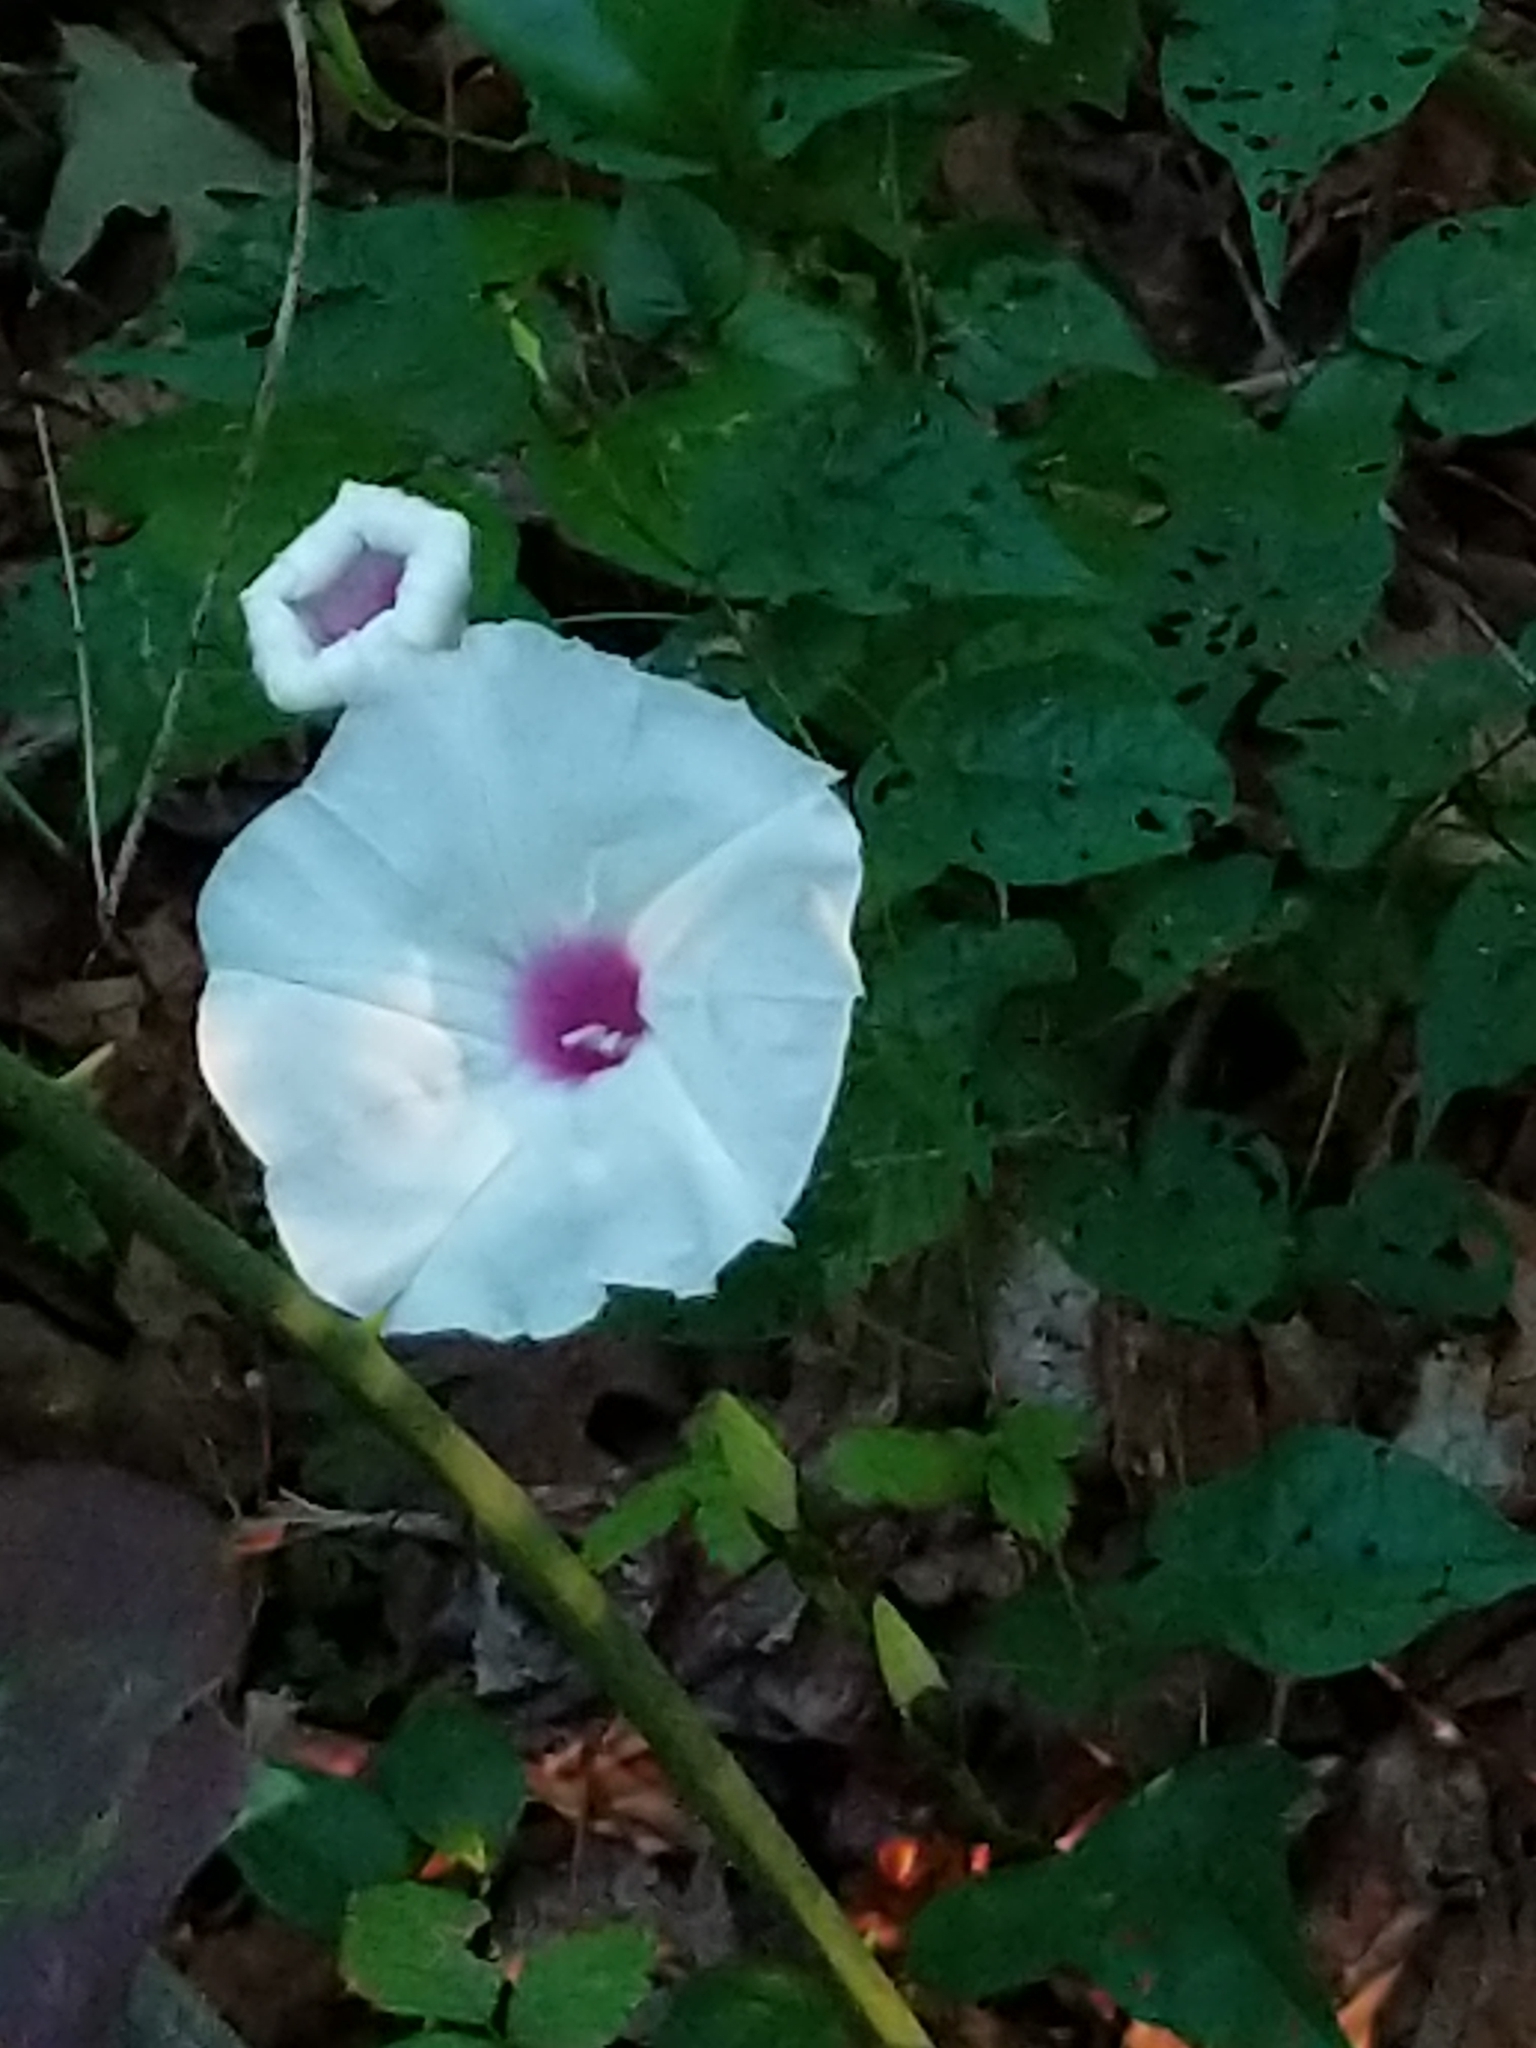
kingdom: Plantae
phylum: Tracheophyta
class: Magnoliopsida
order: Solanales
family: Convolvulaceae
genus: Ipomoea
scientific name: Ipomoea pandurata
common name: Man-of-the-earth
